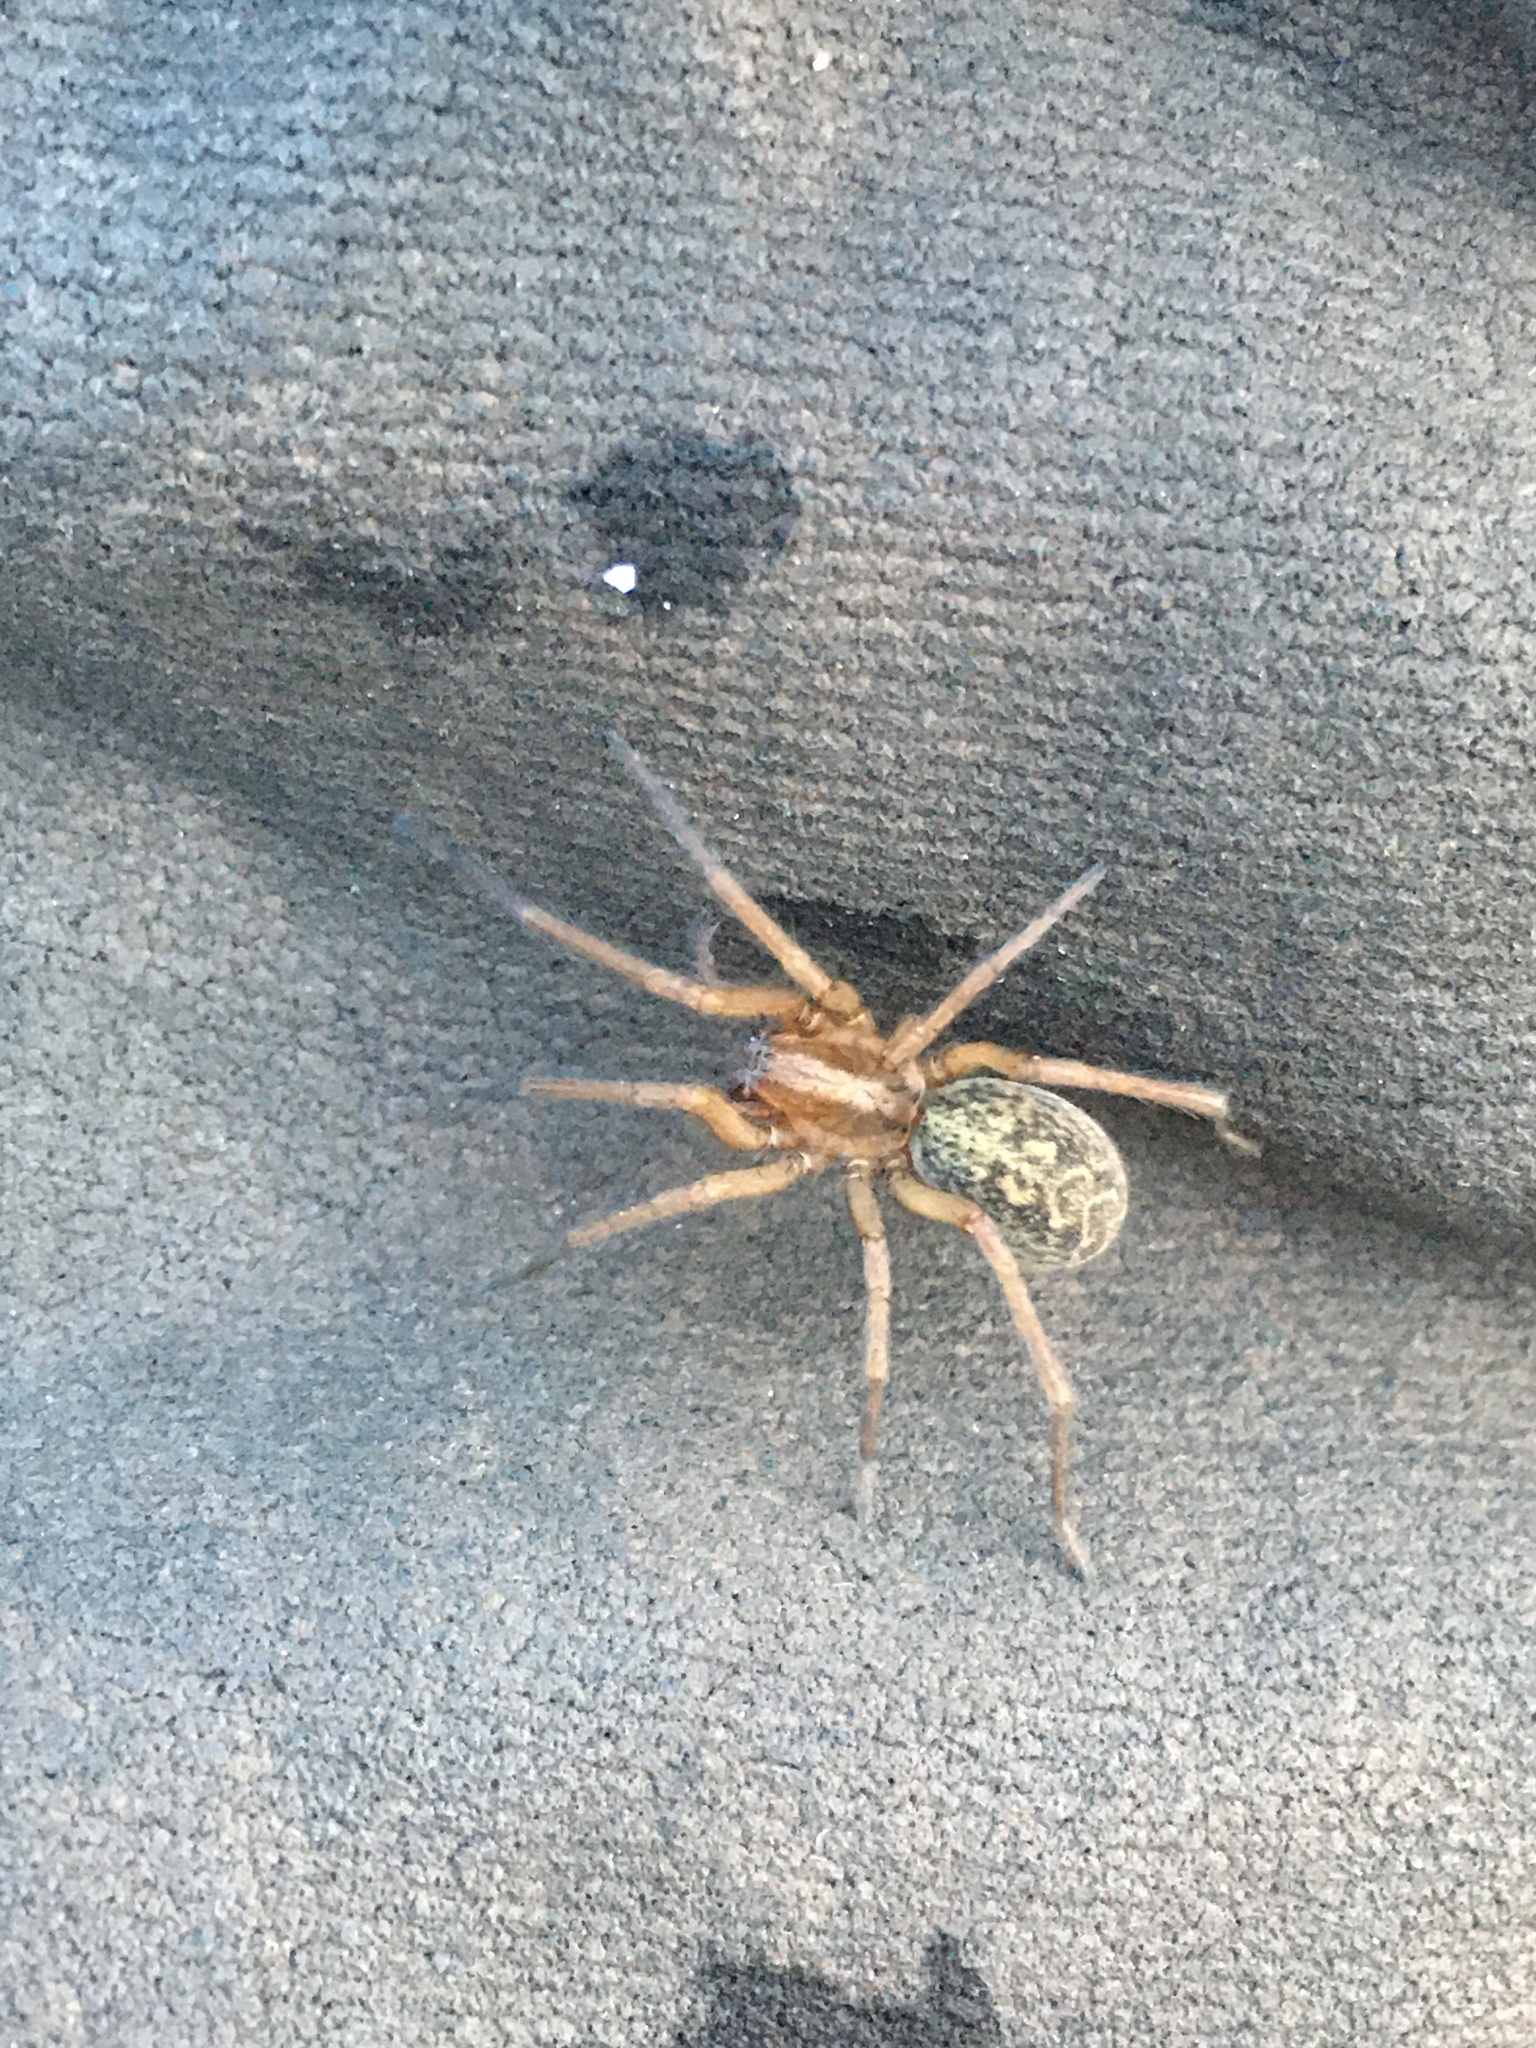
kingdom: Animalia
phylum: Arthropoda
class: Arachnida
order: Araneae
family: Agelenidae
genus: Eratigena
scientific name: Eratigena agrestis
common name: Hobo spider
